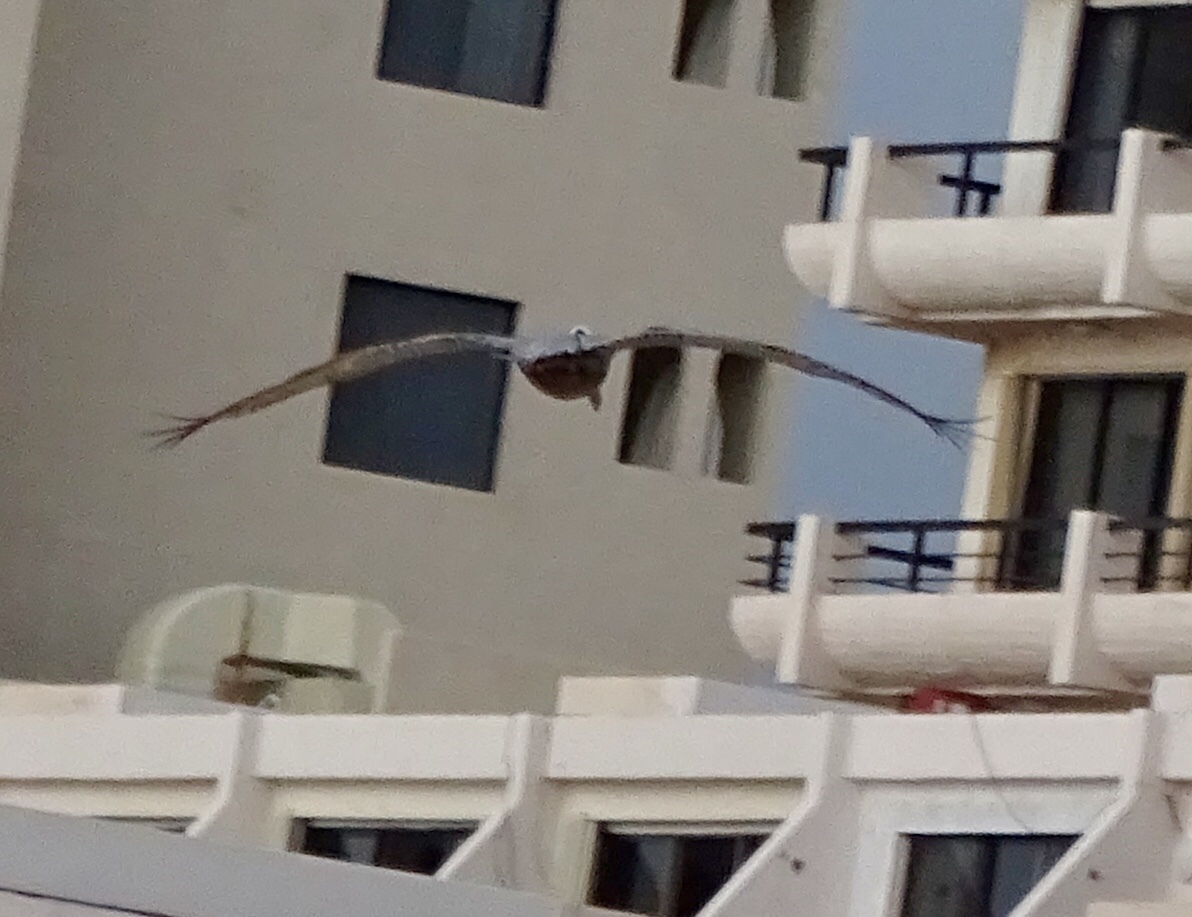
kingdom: Animalia
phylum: Chordata
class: Aves
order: Pelecaniformes
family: Pelecanidae
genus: Pelecanus
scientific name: Pelecanus occidentalis
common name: Brown pelican
